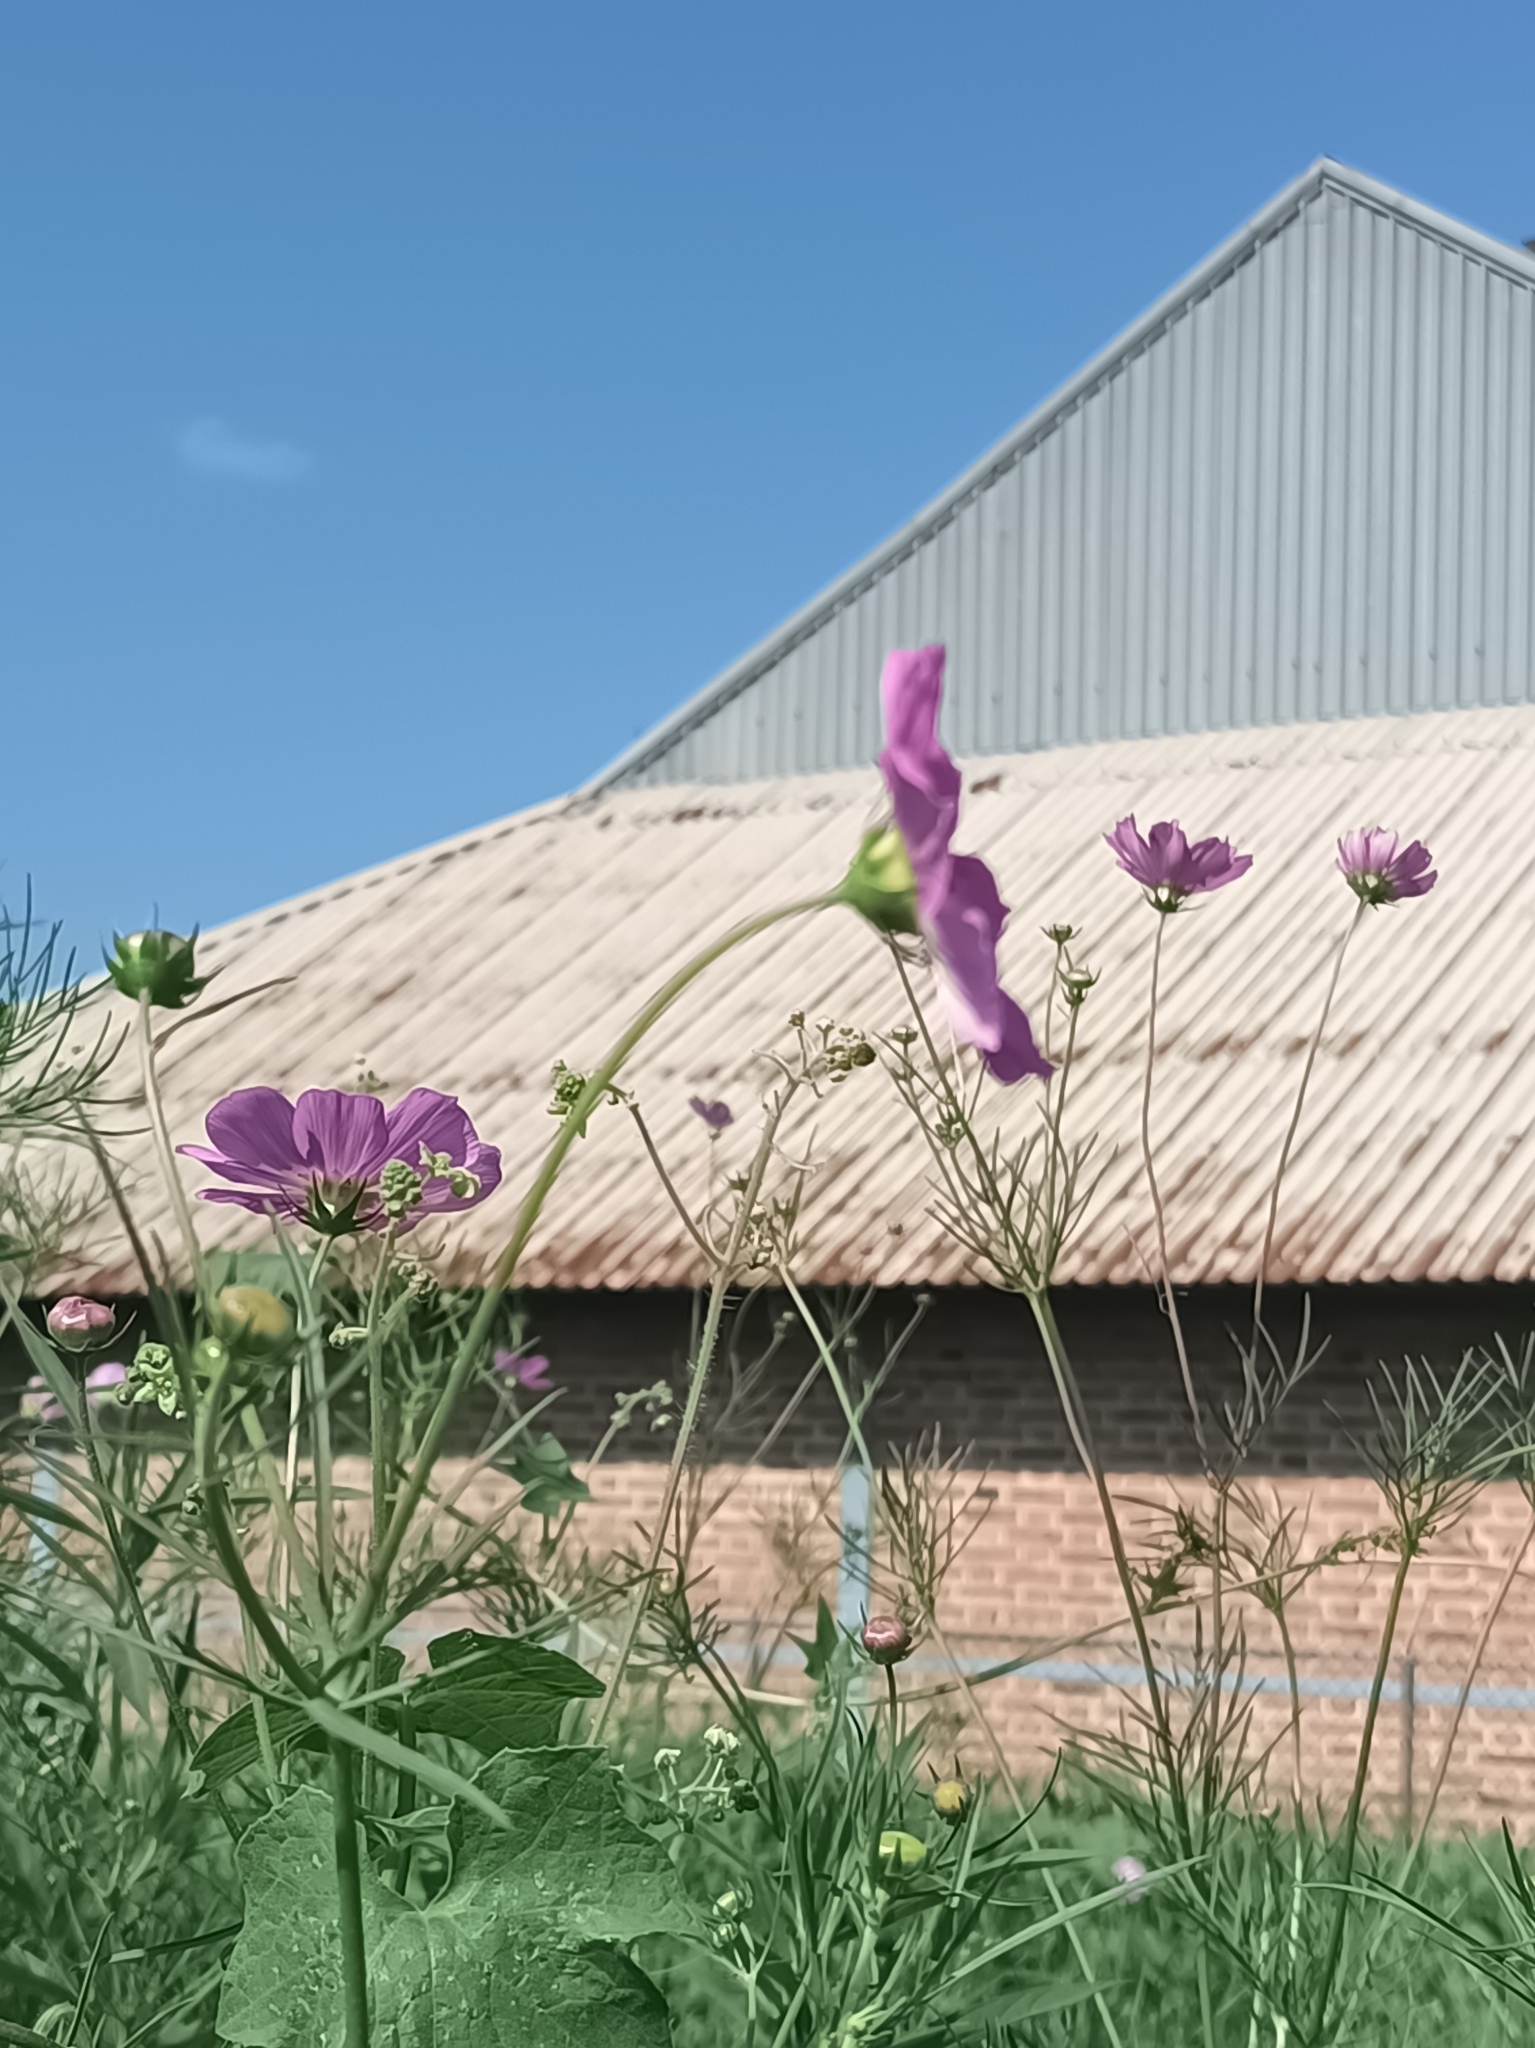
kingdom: Plantae
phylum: Tracheophyta
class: Magnoliopsida
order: Asterales
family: Asteraceae
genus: Cosmos
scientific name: Cosmos bipinnatus
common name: Garden cosmos
